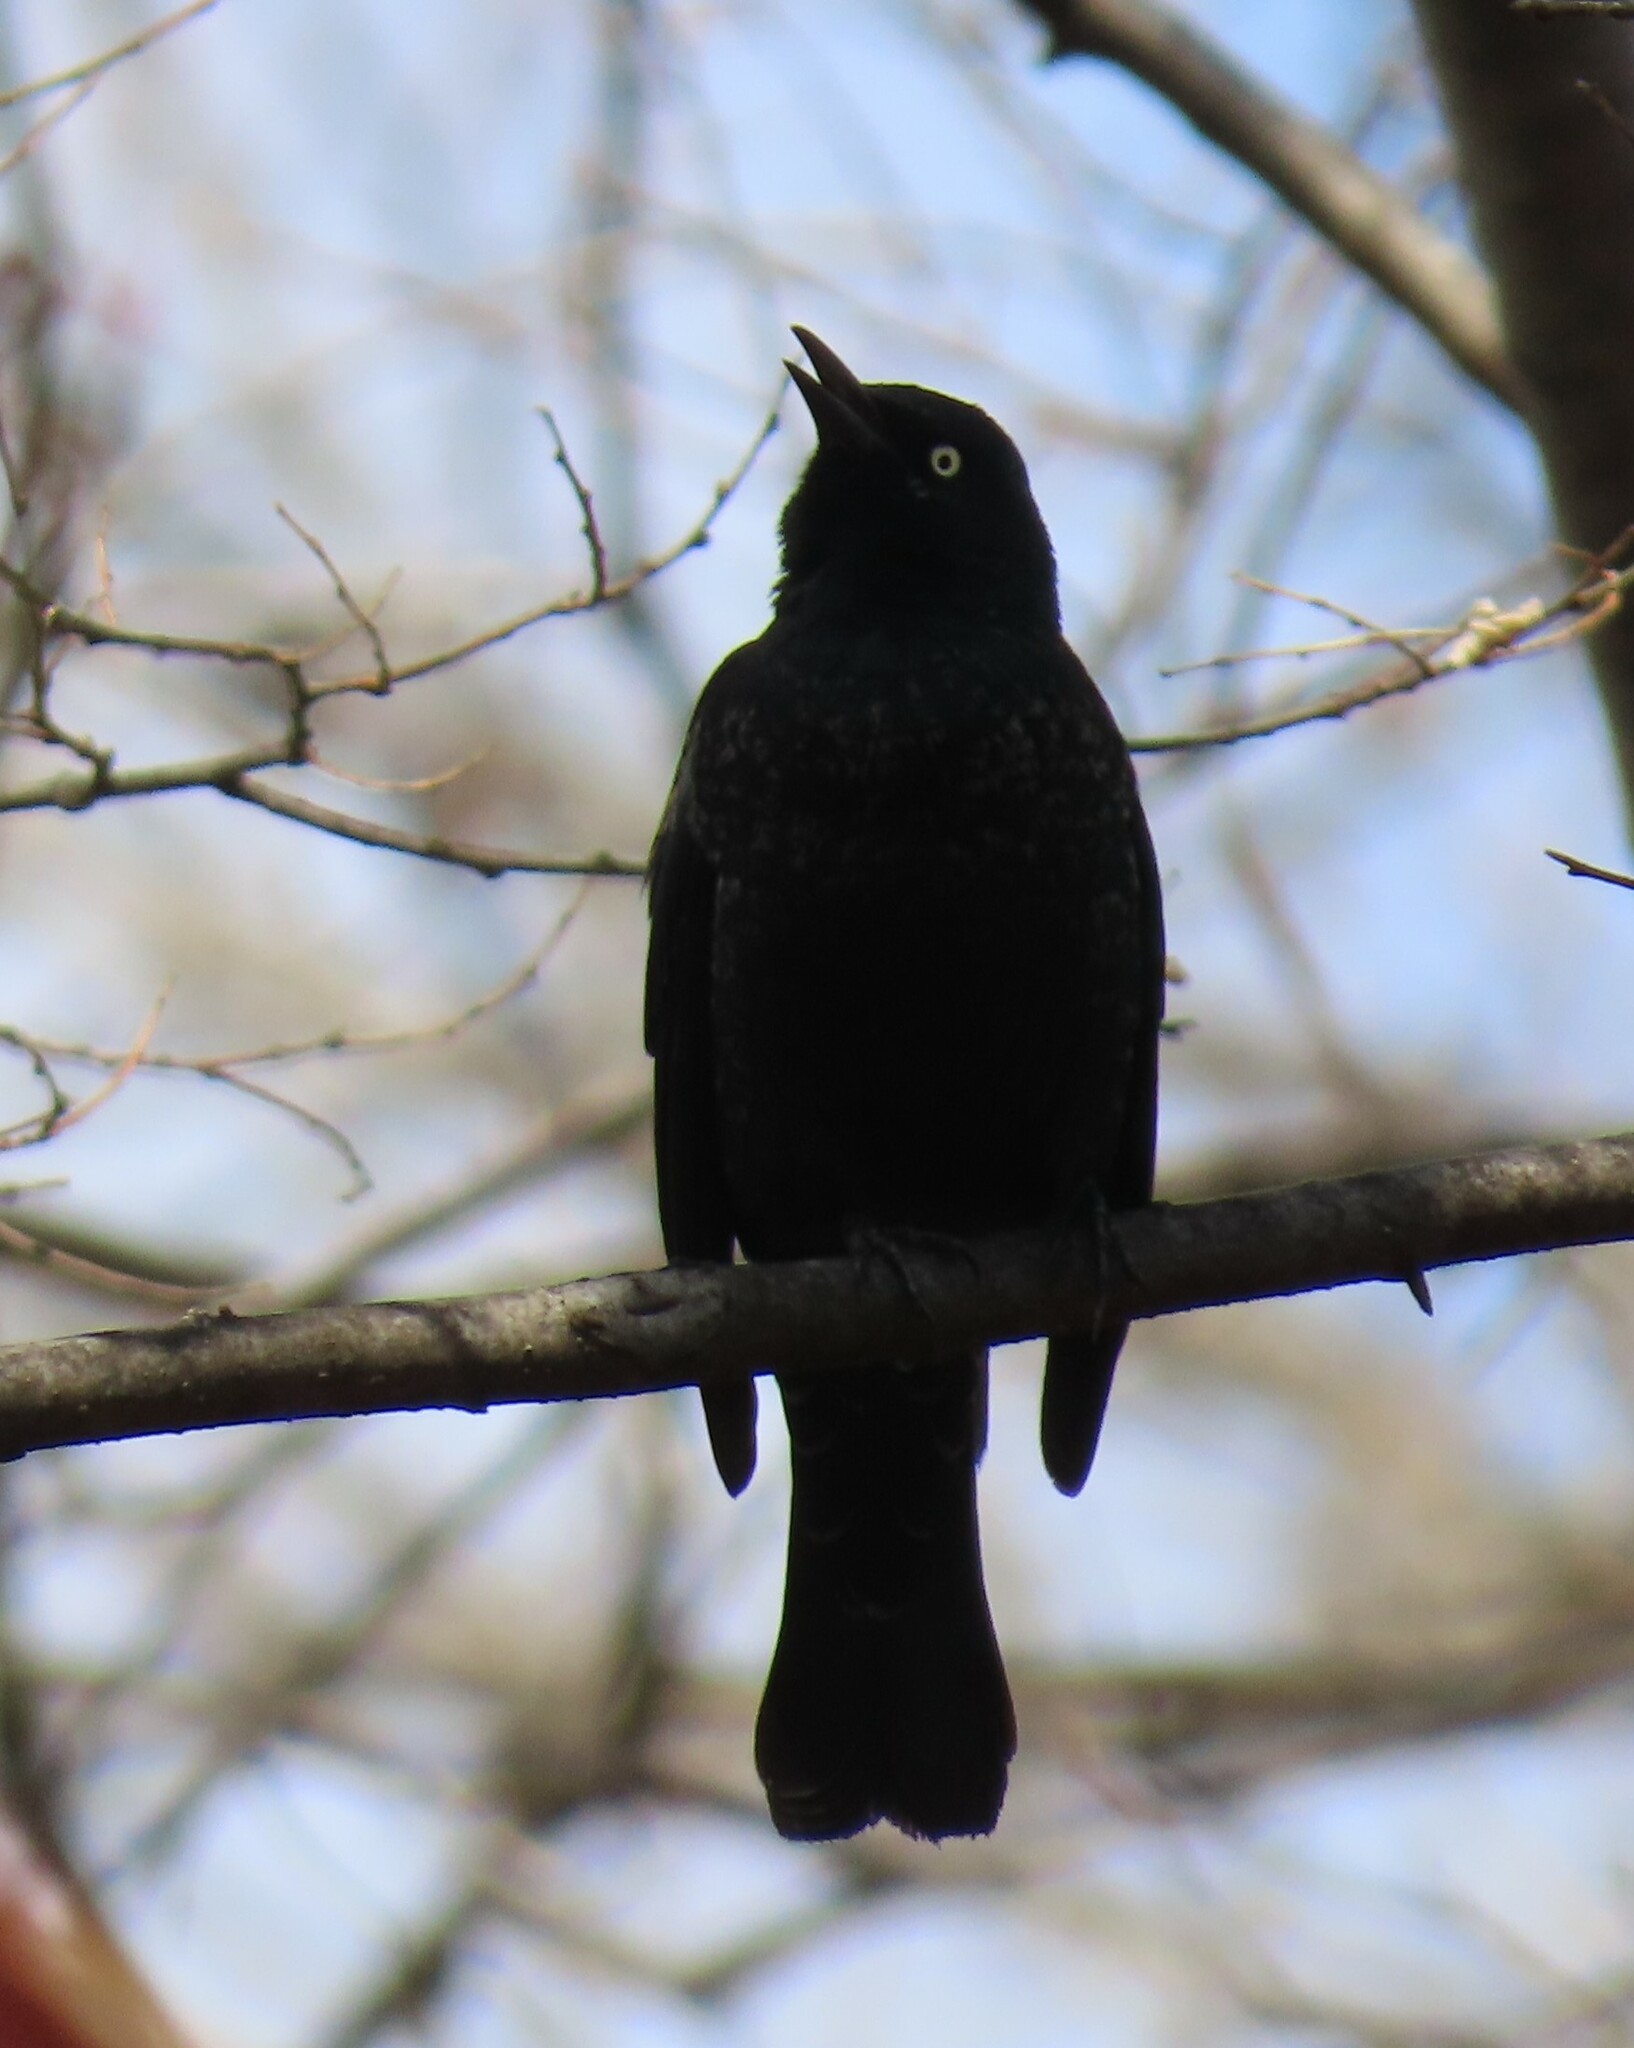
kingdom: Animalia
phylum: Chordata
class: Aves
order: Passeriformes
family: Icteridae
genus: Euphagus
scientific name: Euphagus carolinus
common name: Rusty blackbird
